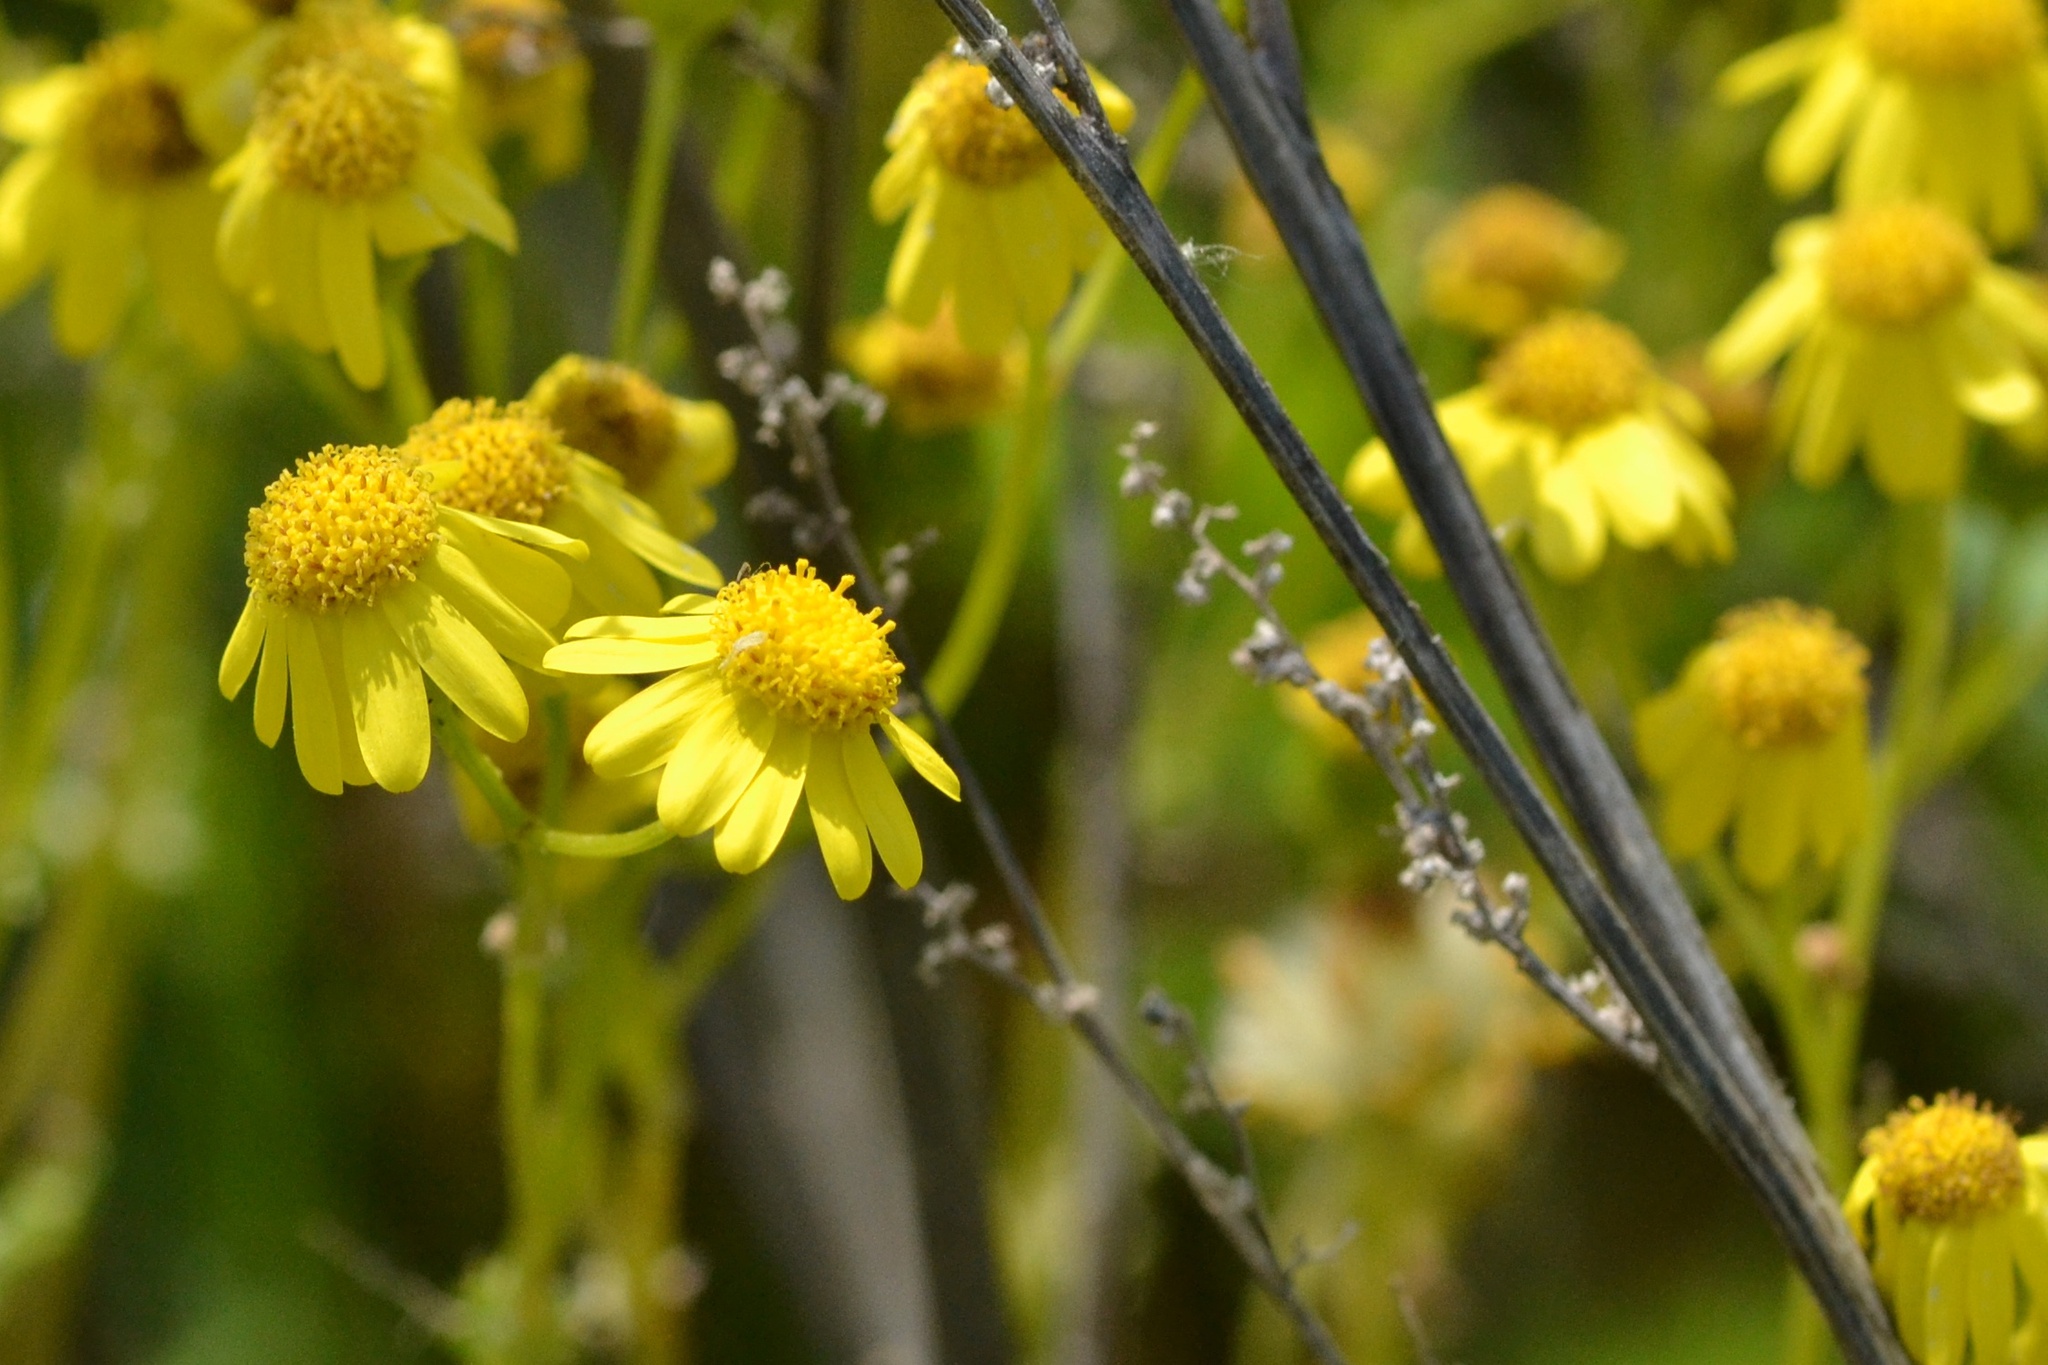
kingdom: Plantae
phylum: Tracheophyta
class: Magnoliopsida
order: Asterales
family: Asteraceae
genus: Senecio
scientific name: Senecio vernalis
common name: Eastern groundsel
